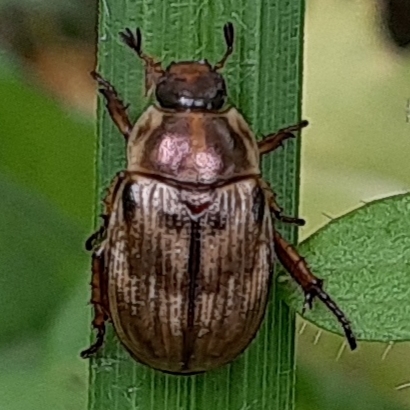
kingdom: Animalia
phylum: Arthropoda
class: Insecta
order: Coleoptera
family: Scarabaeidae
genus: Exomala
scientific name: Exomala orientalis
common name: Oriental beetle
